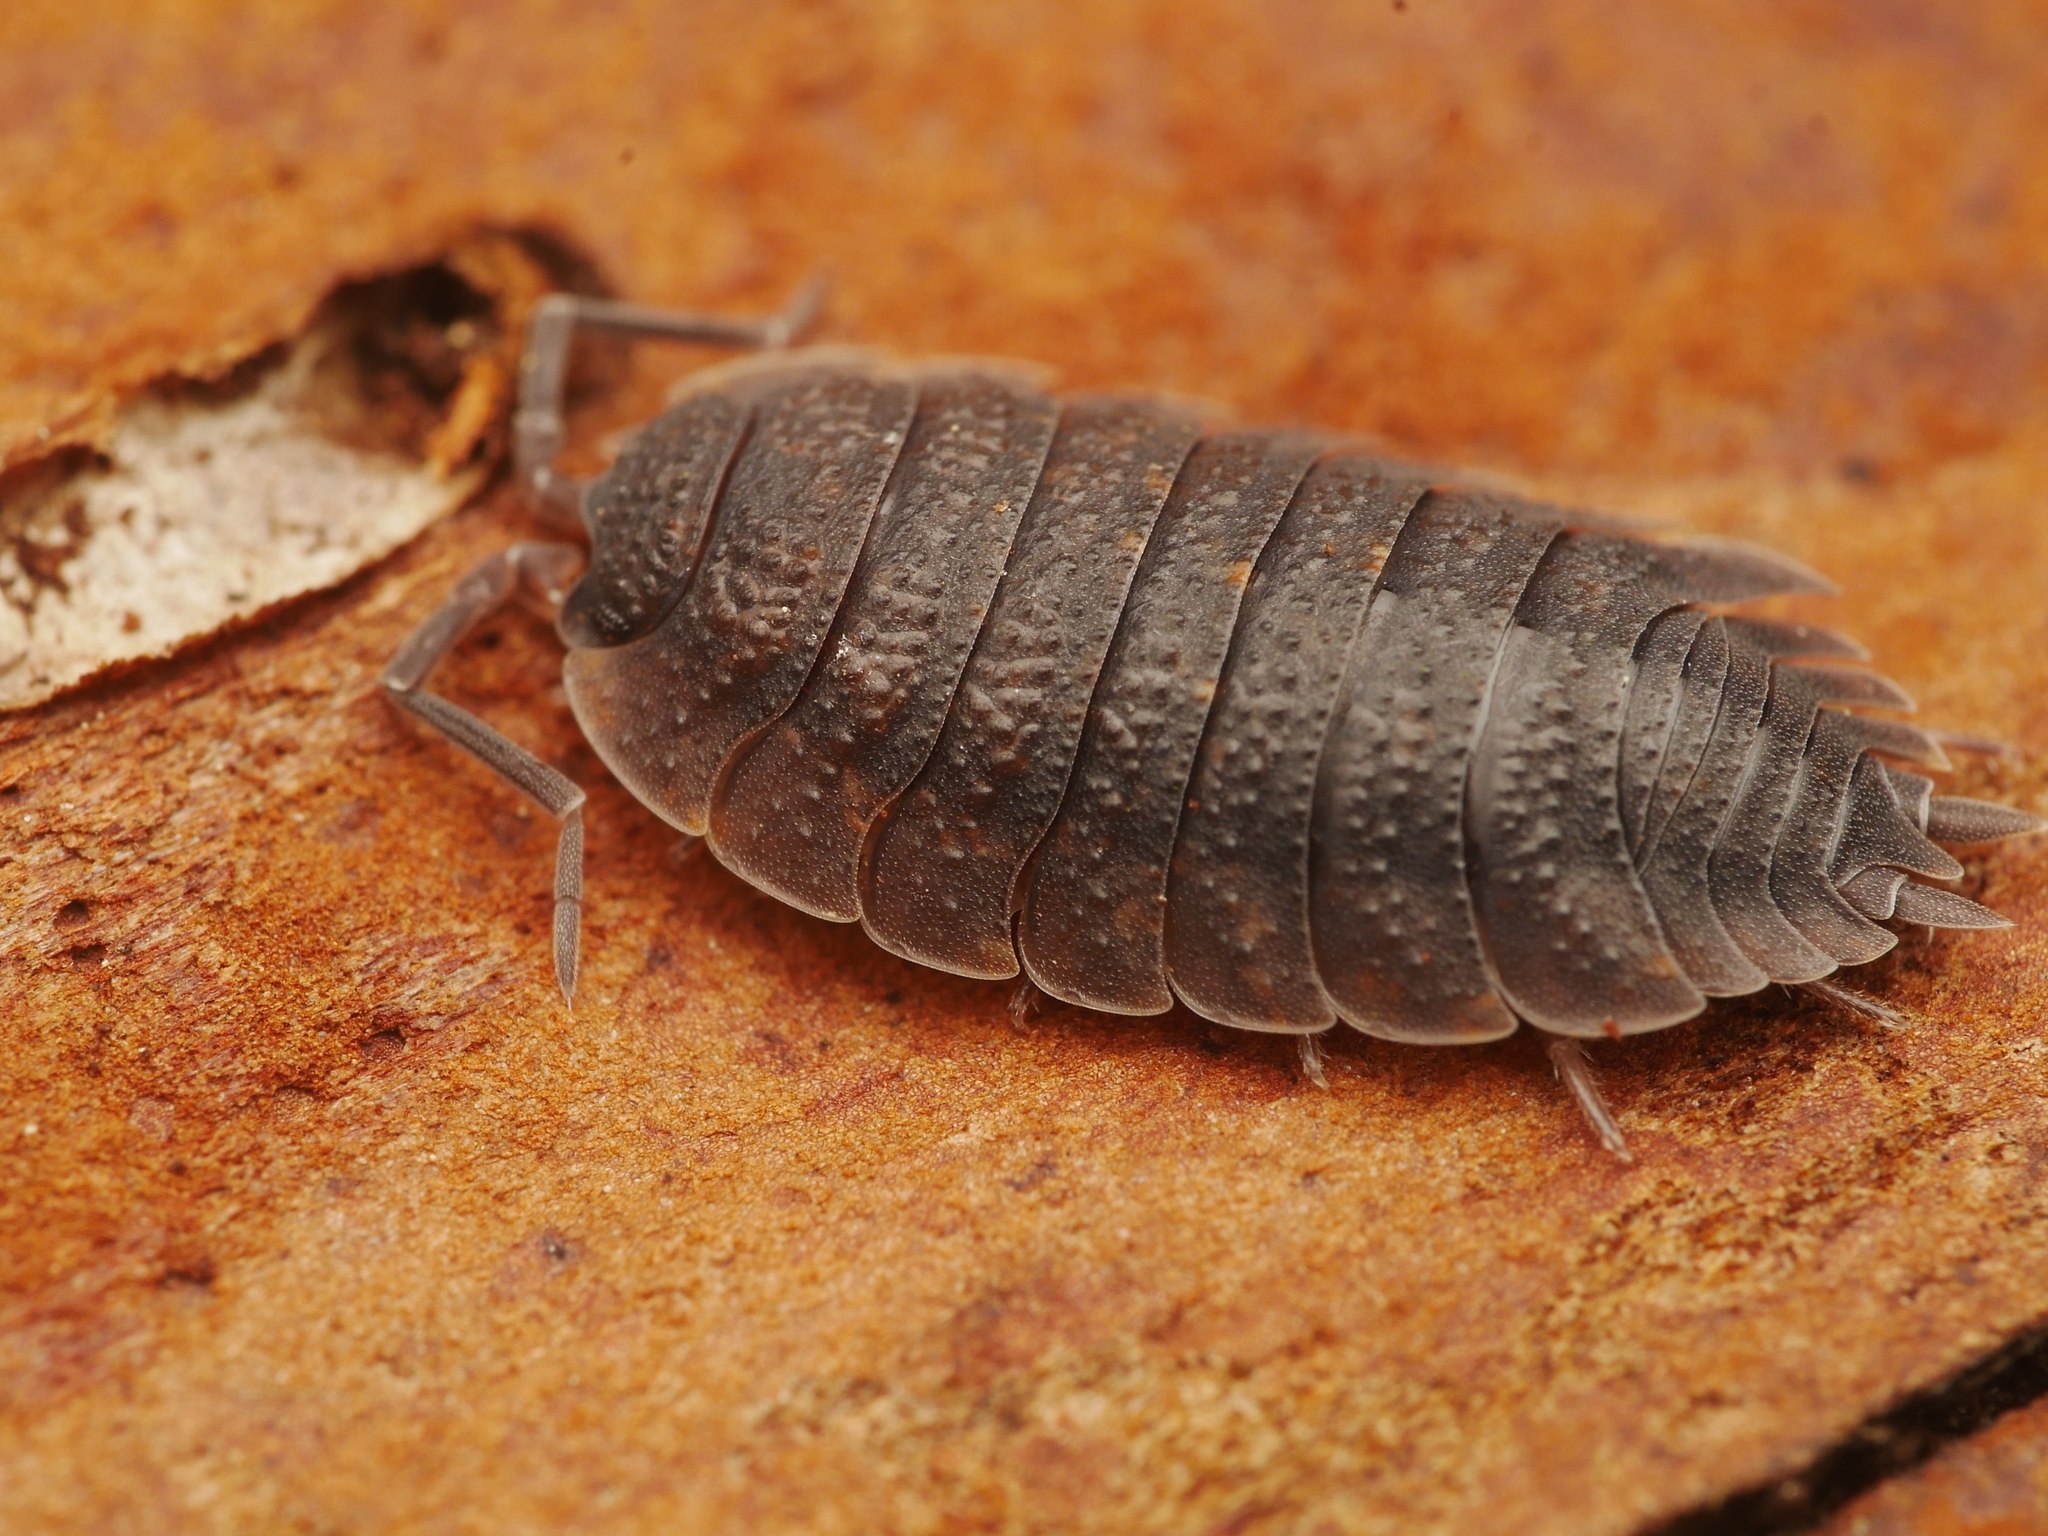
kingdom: Animalia
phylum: Arthropoda
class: Malacostraca
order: Isopoda
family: Porcellionidae
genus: Porcellio
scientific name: Porcellio scaber
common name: Common rough woodlouse
